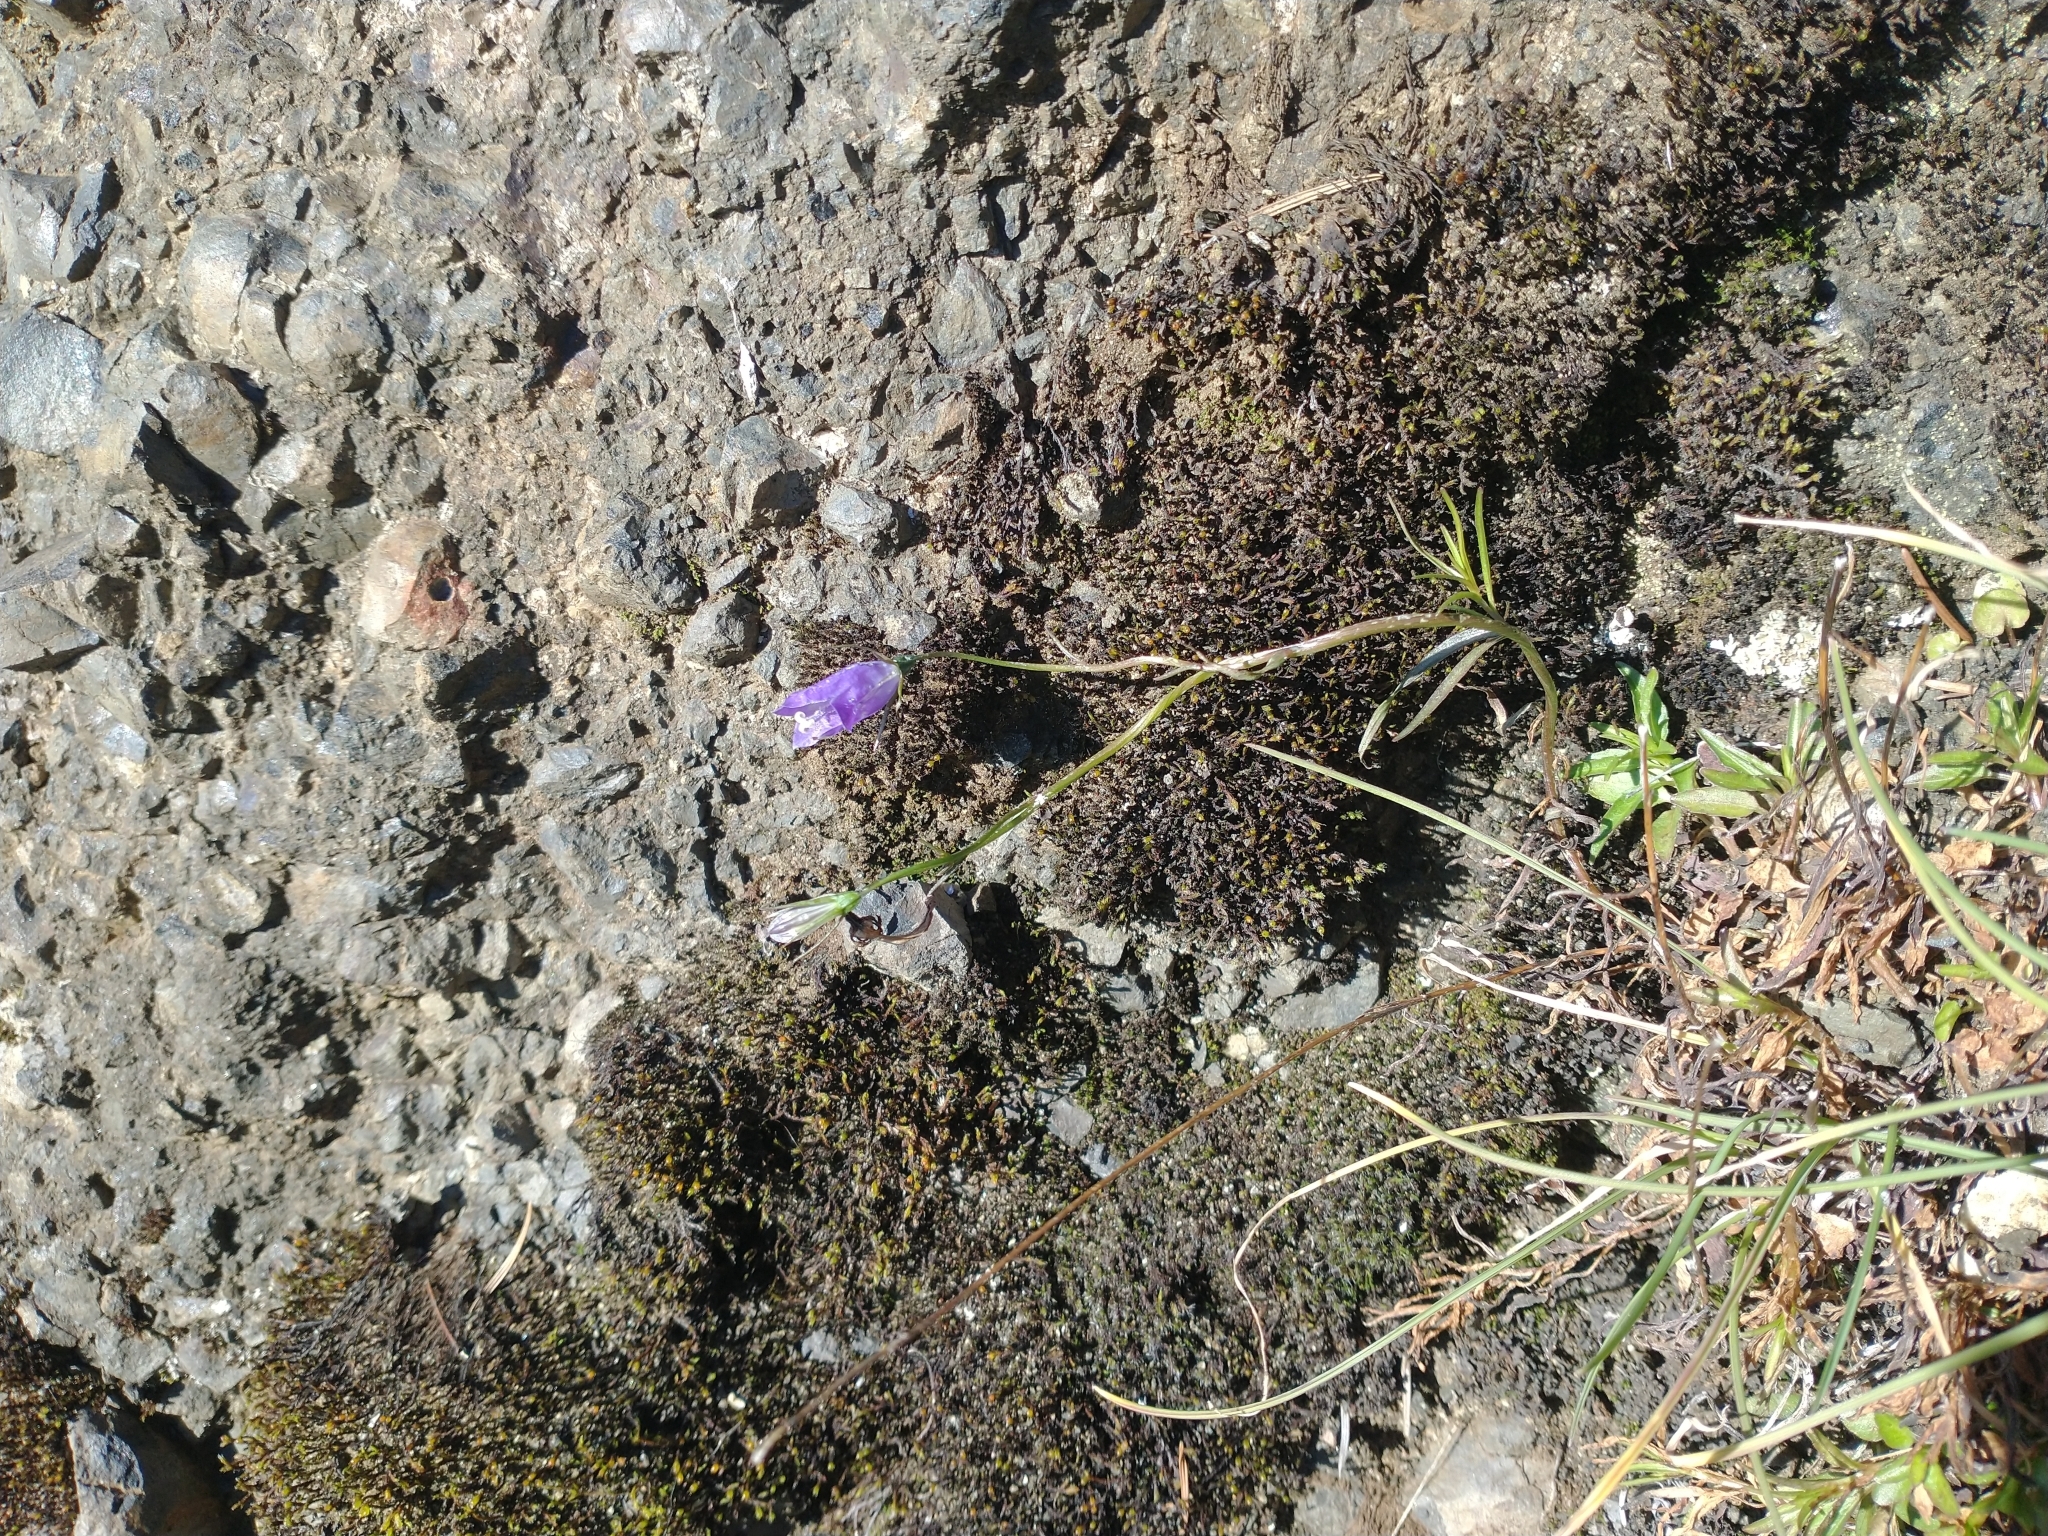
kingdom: Plantae
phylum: Tracheophyta
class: Magnoliopsida
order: Asterales
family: Campanulaceae
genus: Campanula
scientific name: Campanula petiolata
